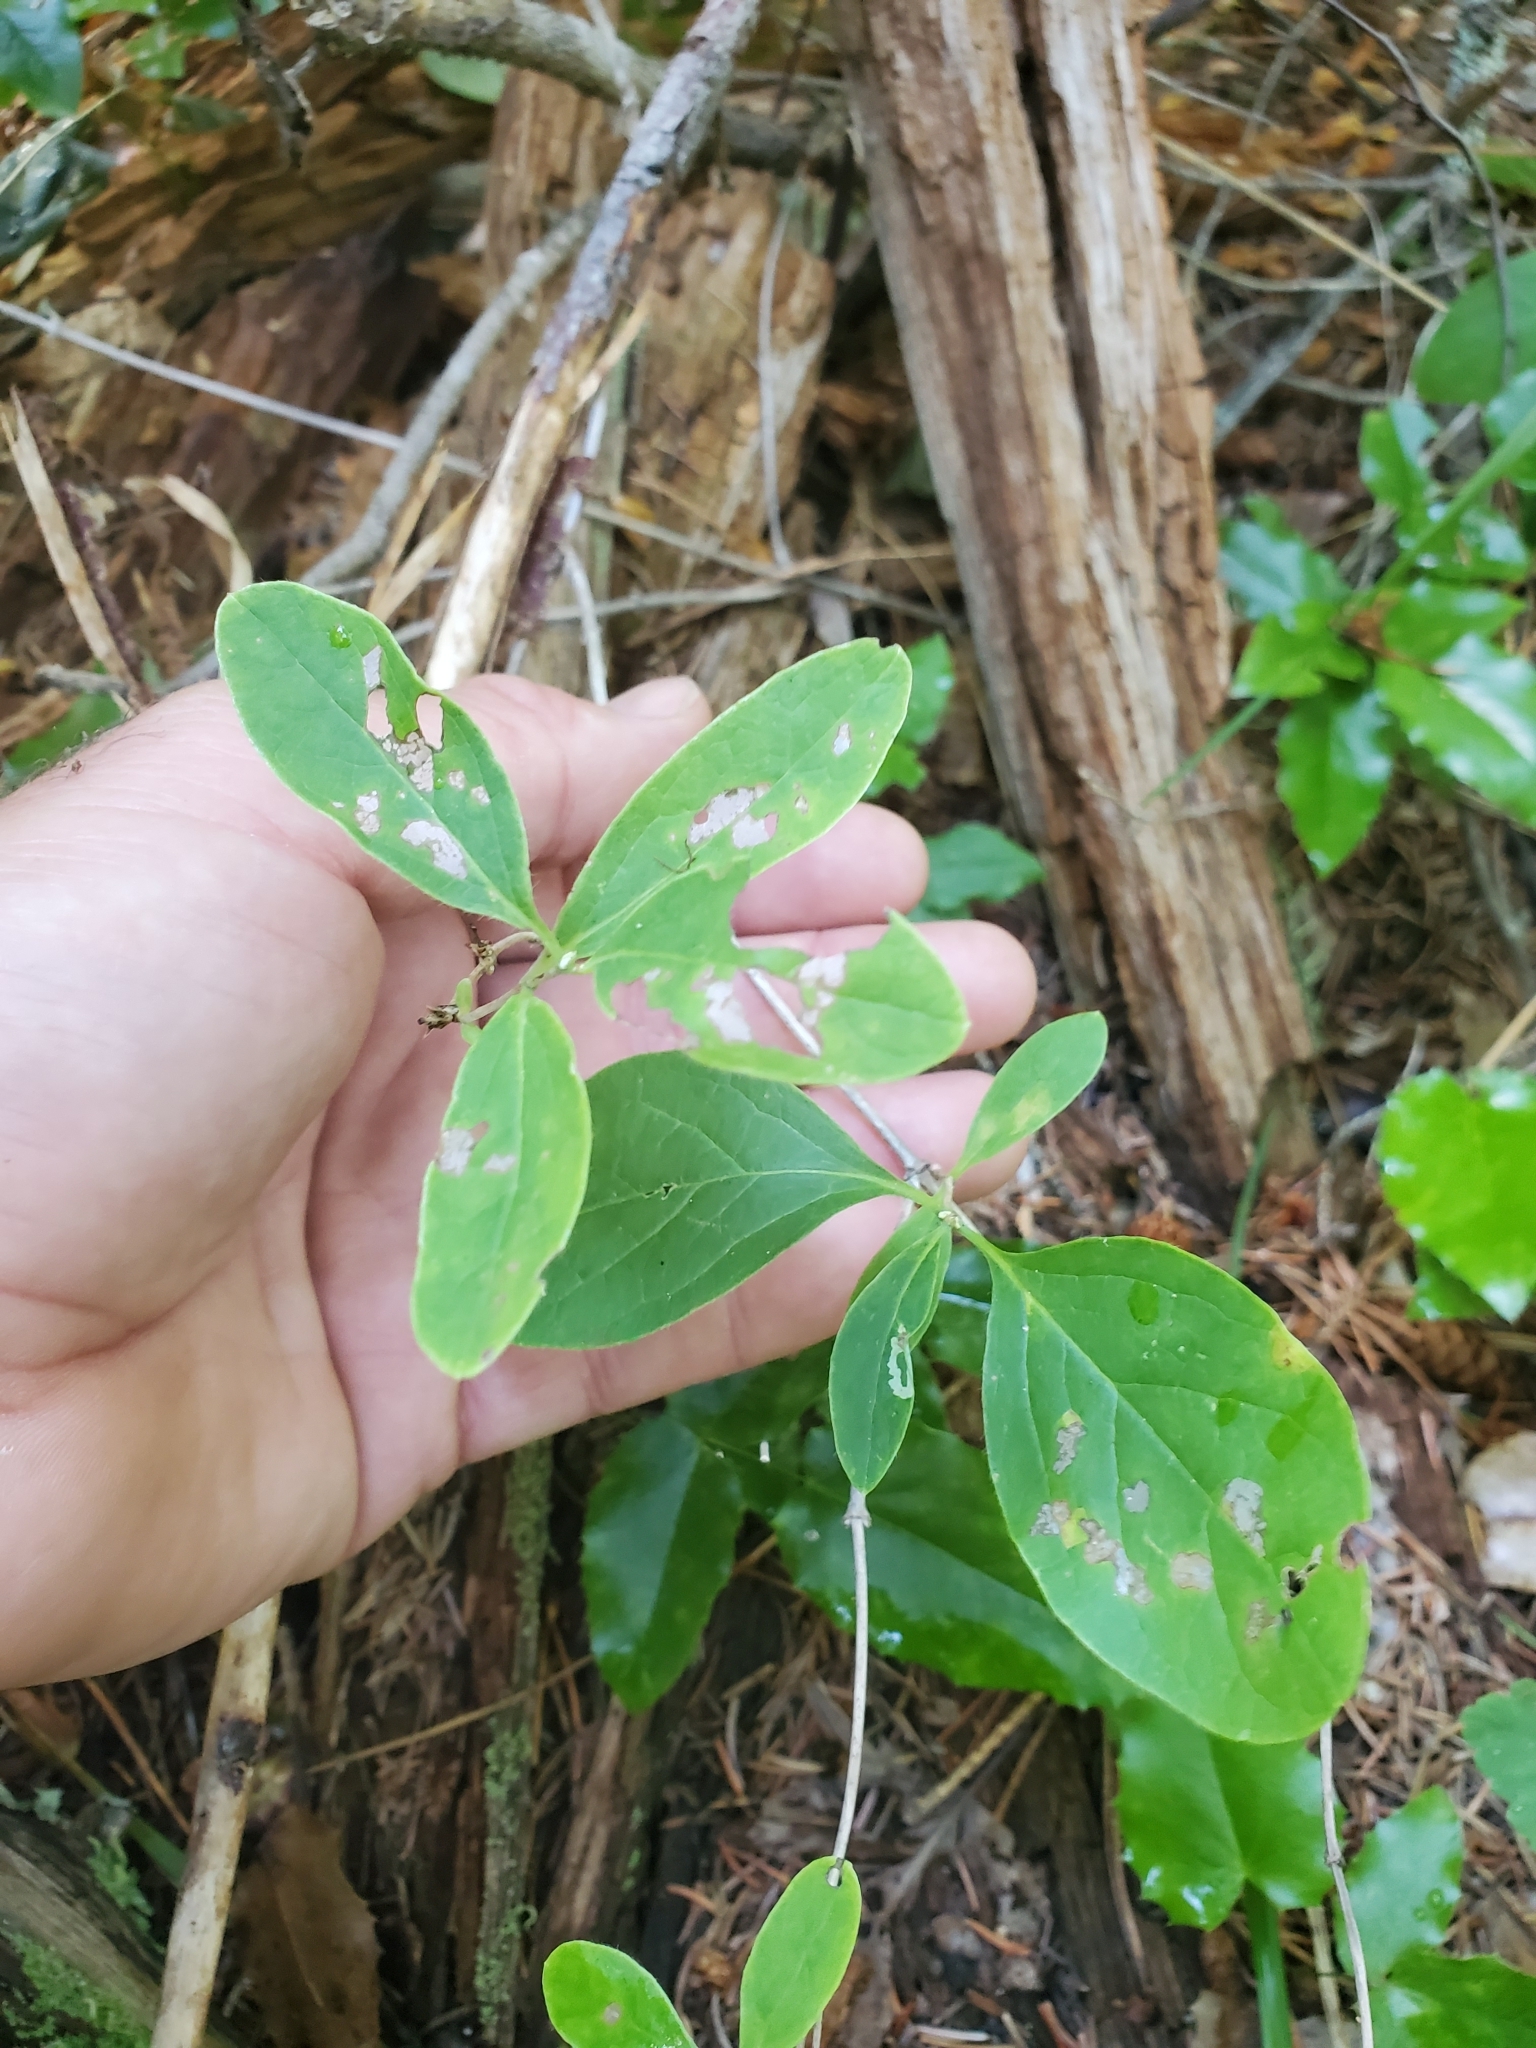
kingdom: Plantae
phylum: Tracheophyta
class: Magnoliopsida
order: Dipsacales
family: Caprifoliaceae
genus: Lonicera
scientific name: Lonicera utahensis
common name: Utah honeysuckle
